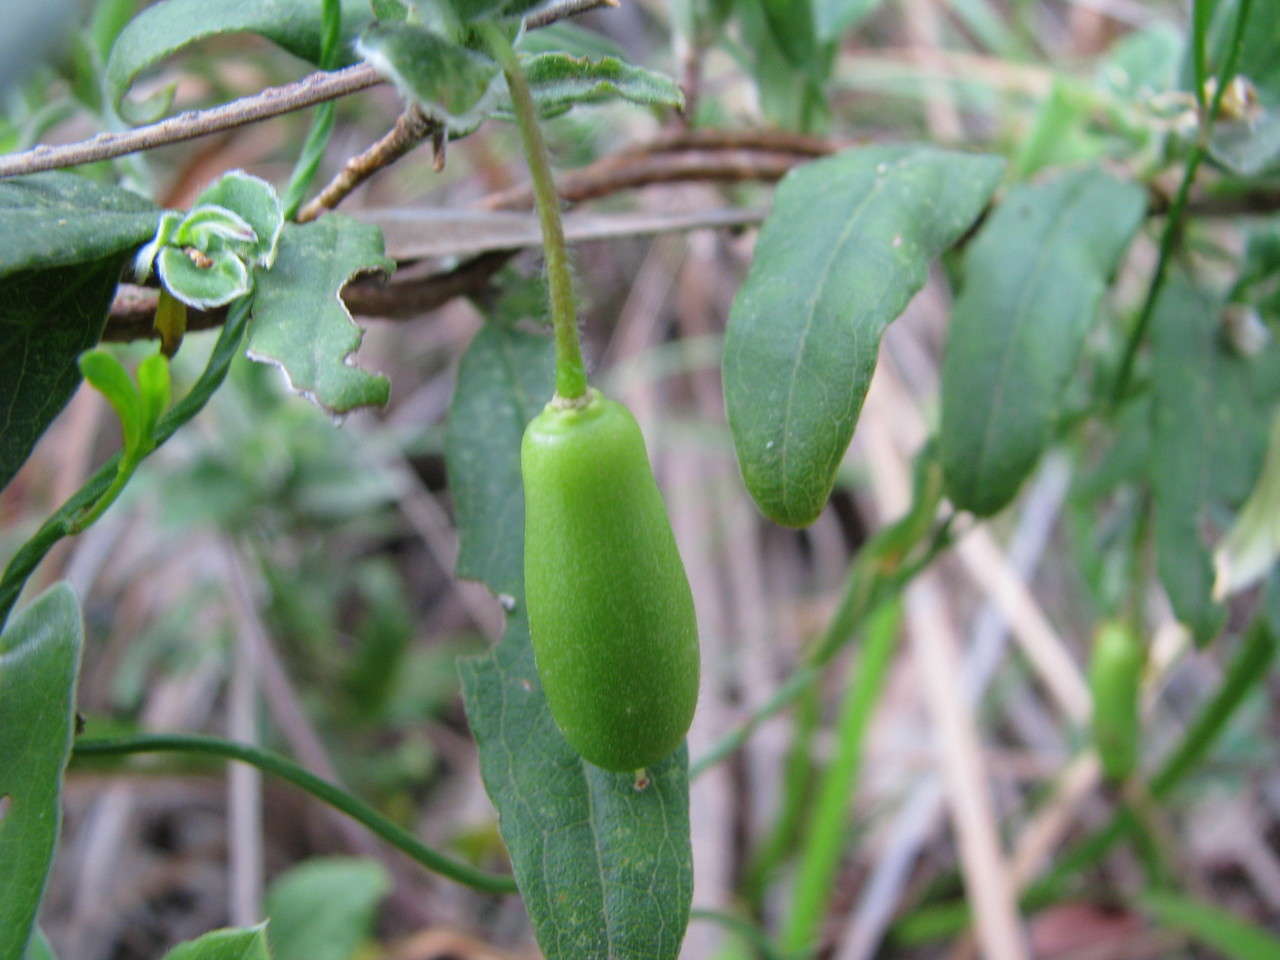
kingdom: Plantae
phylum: Tracheophyta
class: Magnoliopsida
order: Apiales
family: Pittosporaceae
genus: Billardiera
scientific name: Billardiera mutabilis
